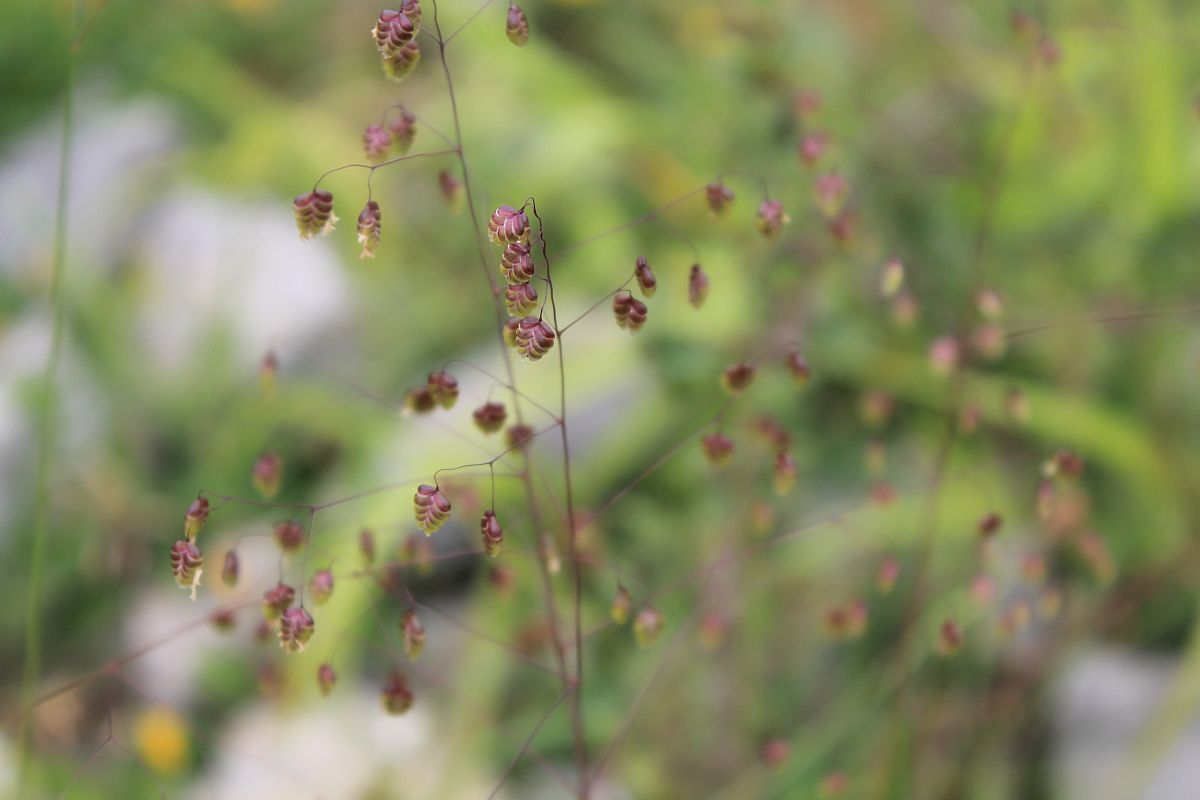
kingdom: Plantae
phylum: Tracheophyta
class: Liliopsida
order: Poales
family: Poaceae
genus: Briza
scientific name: Briza media
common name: Quaking grass
